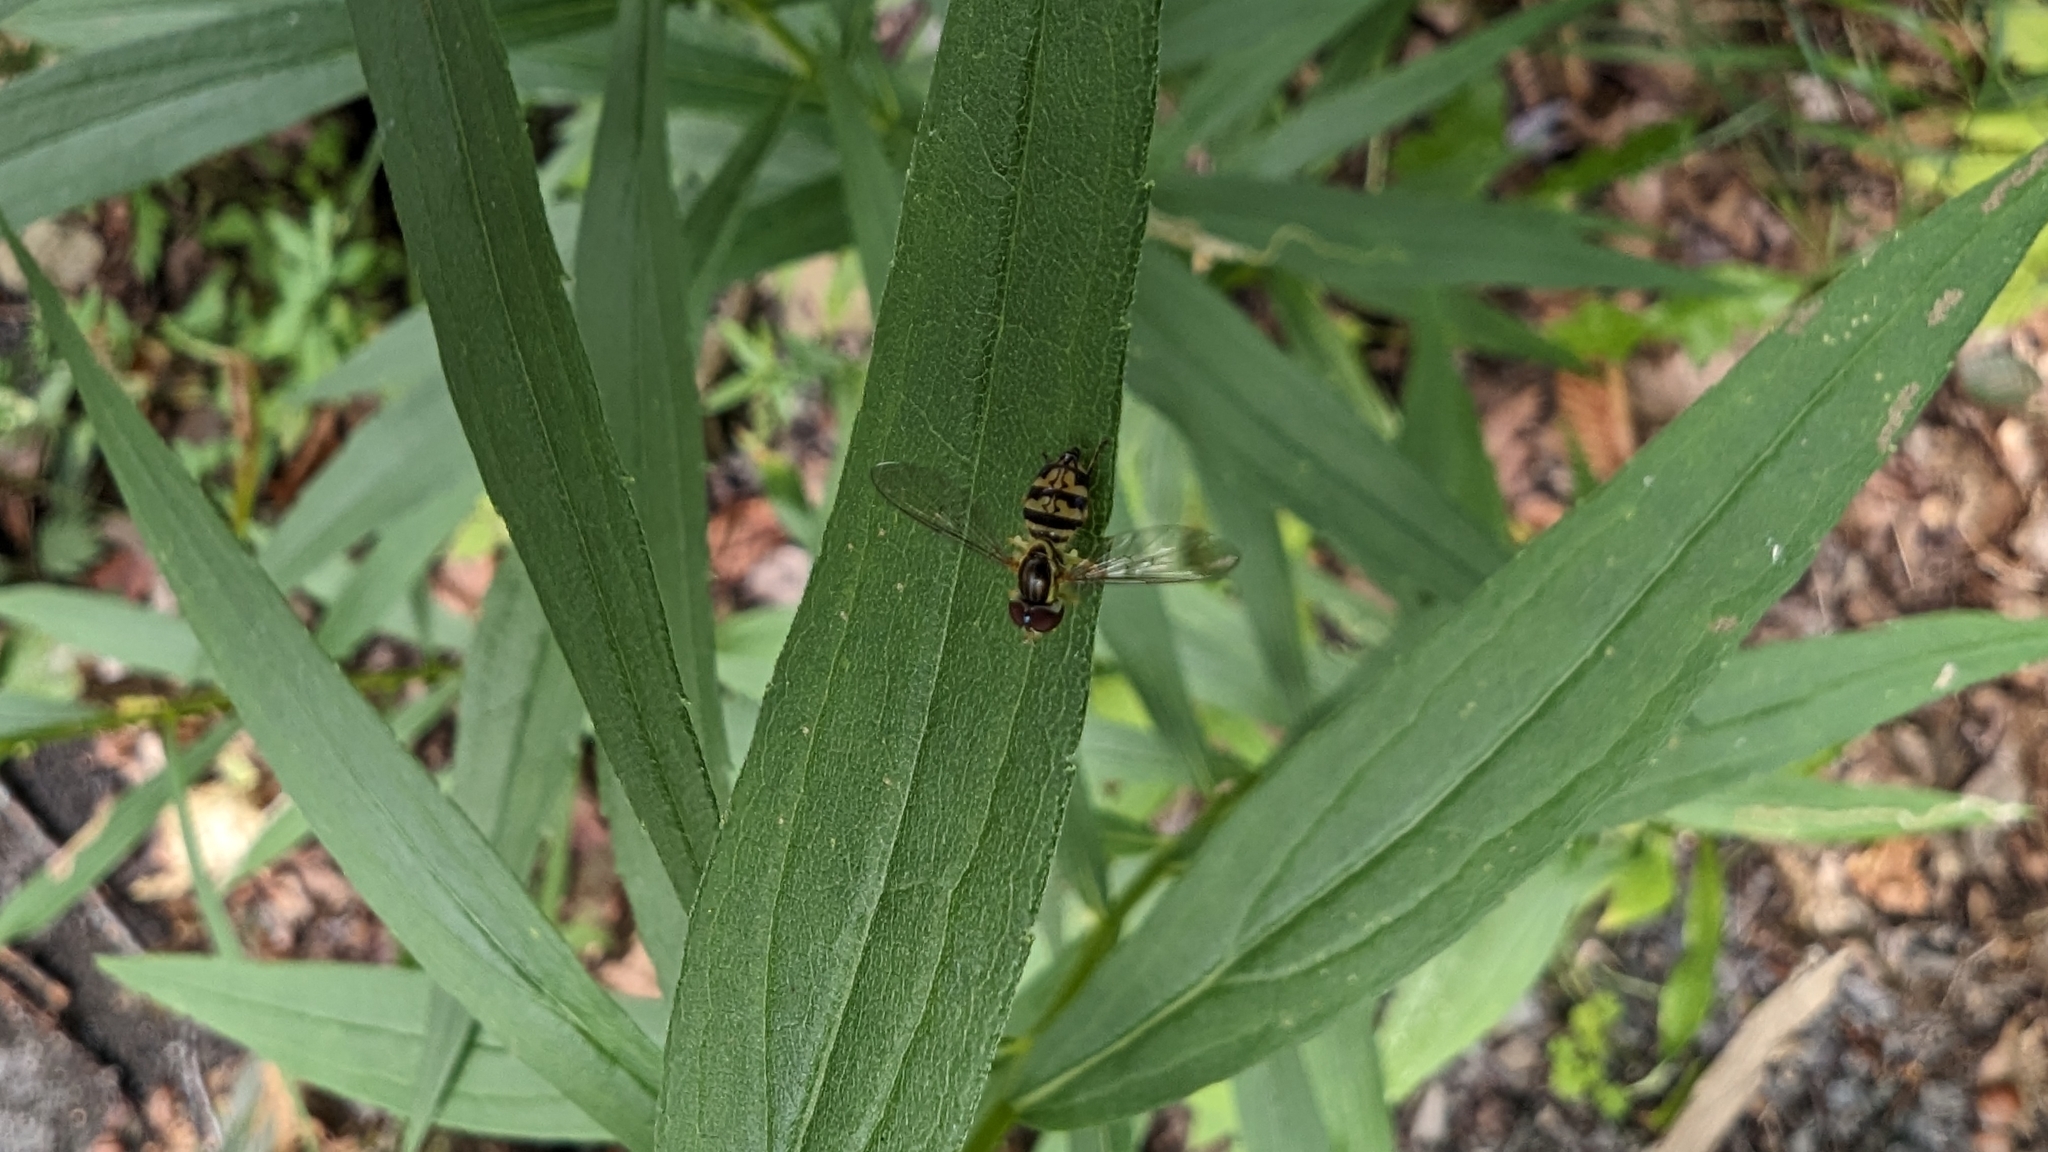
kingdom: Animalia
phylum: Arthropoda
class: Insecta
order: Diptera
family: Syrphidae
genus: Toxomerus
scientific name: Toxomerus geminatus
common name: Eastern calligrapher
